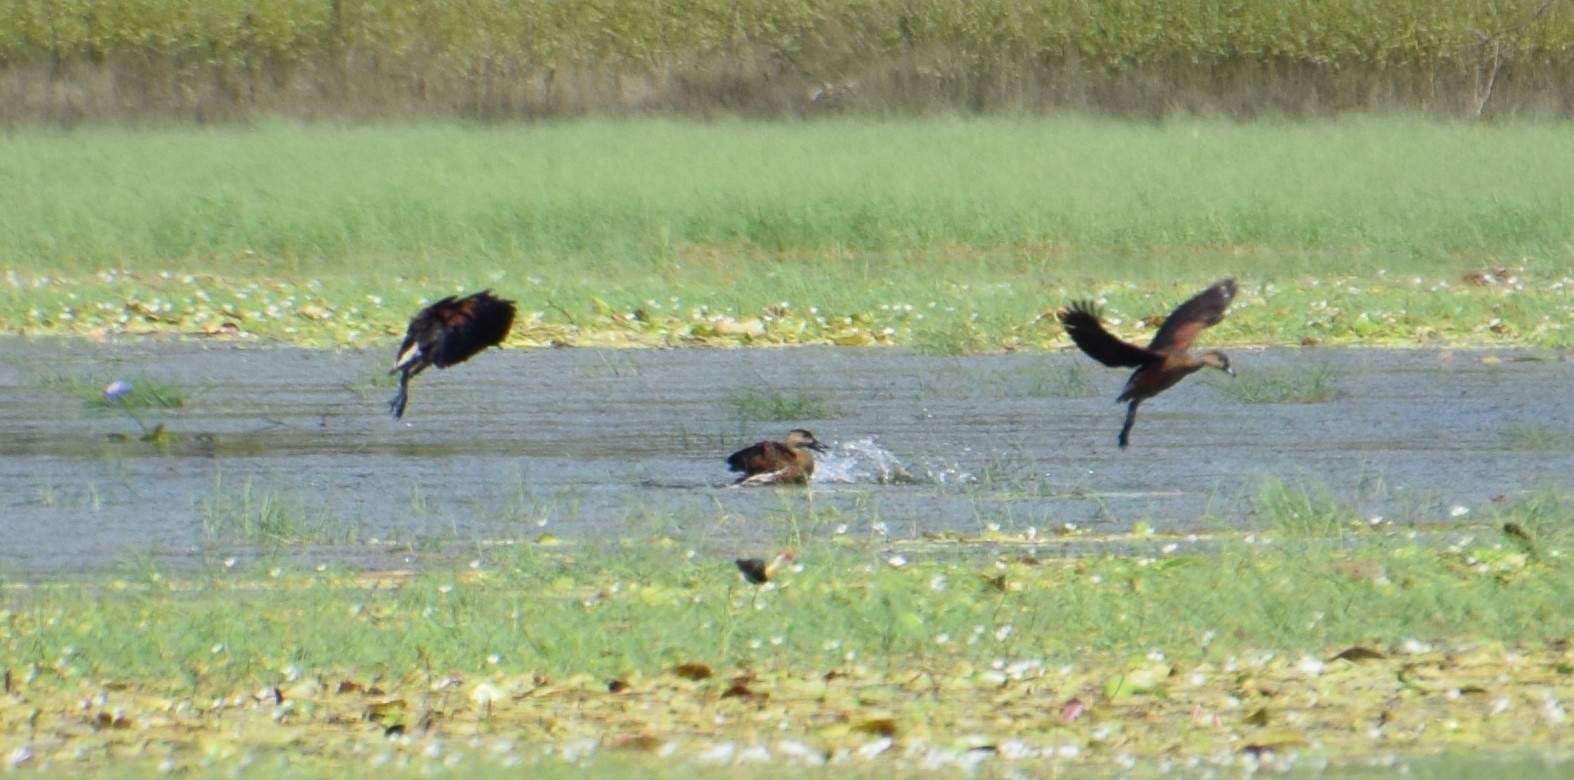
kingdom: Animalia
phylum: Chordata
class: Aves
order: Anseriformes
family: Anatidae
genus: Dendrocygna
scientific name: Dendrocygna arcuata
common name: Wandering whistling-duck
